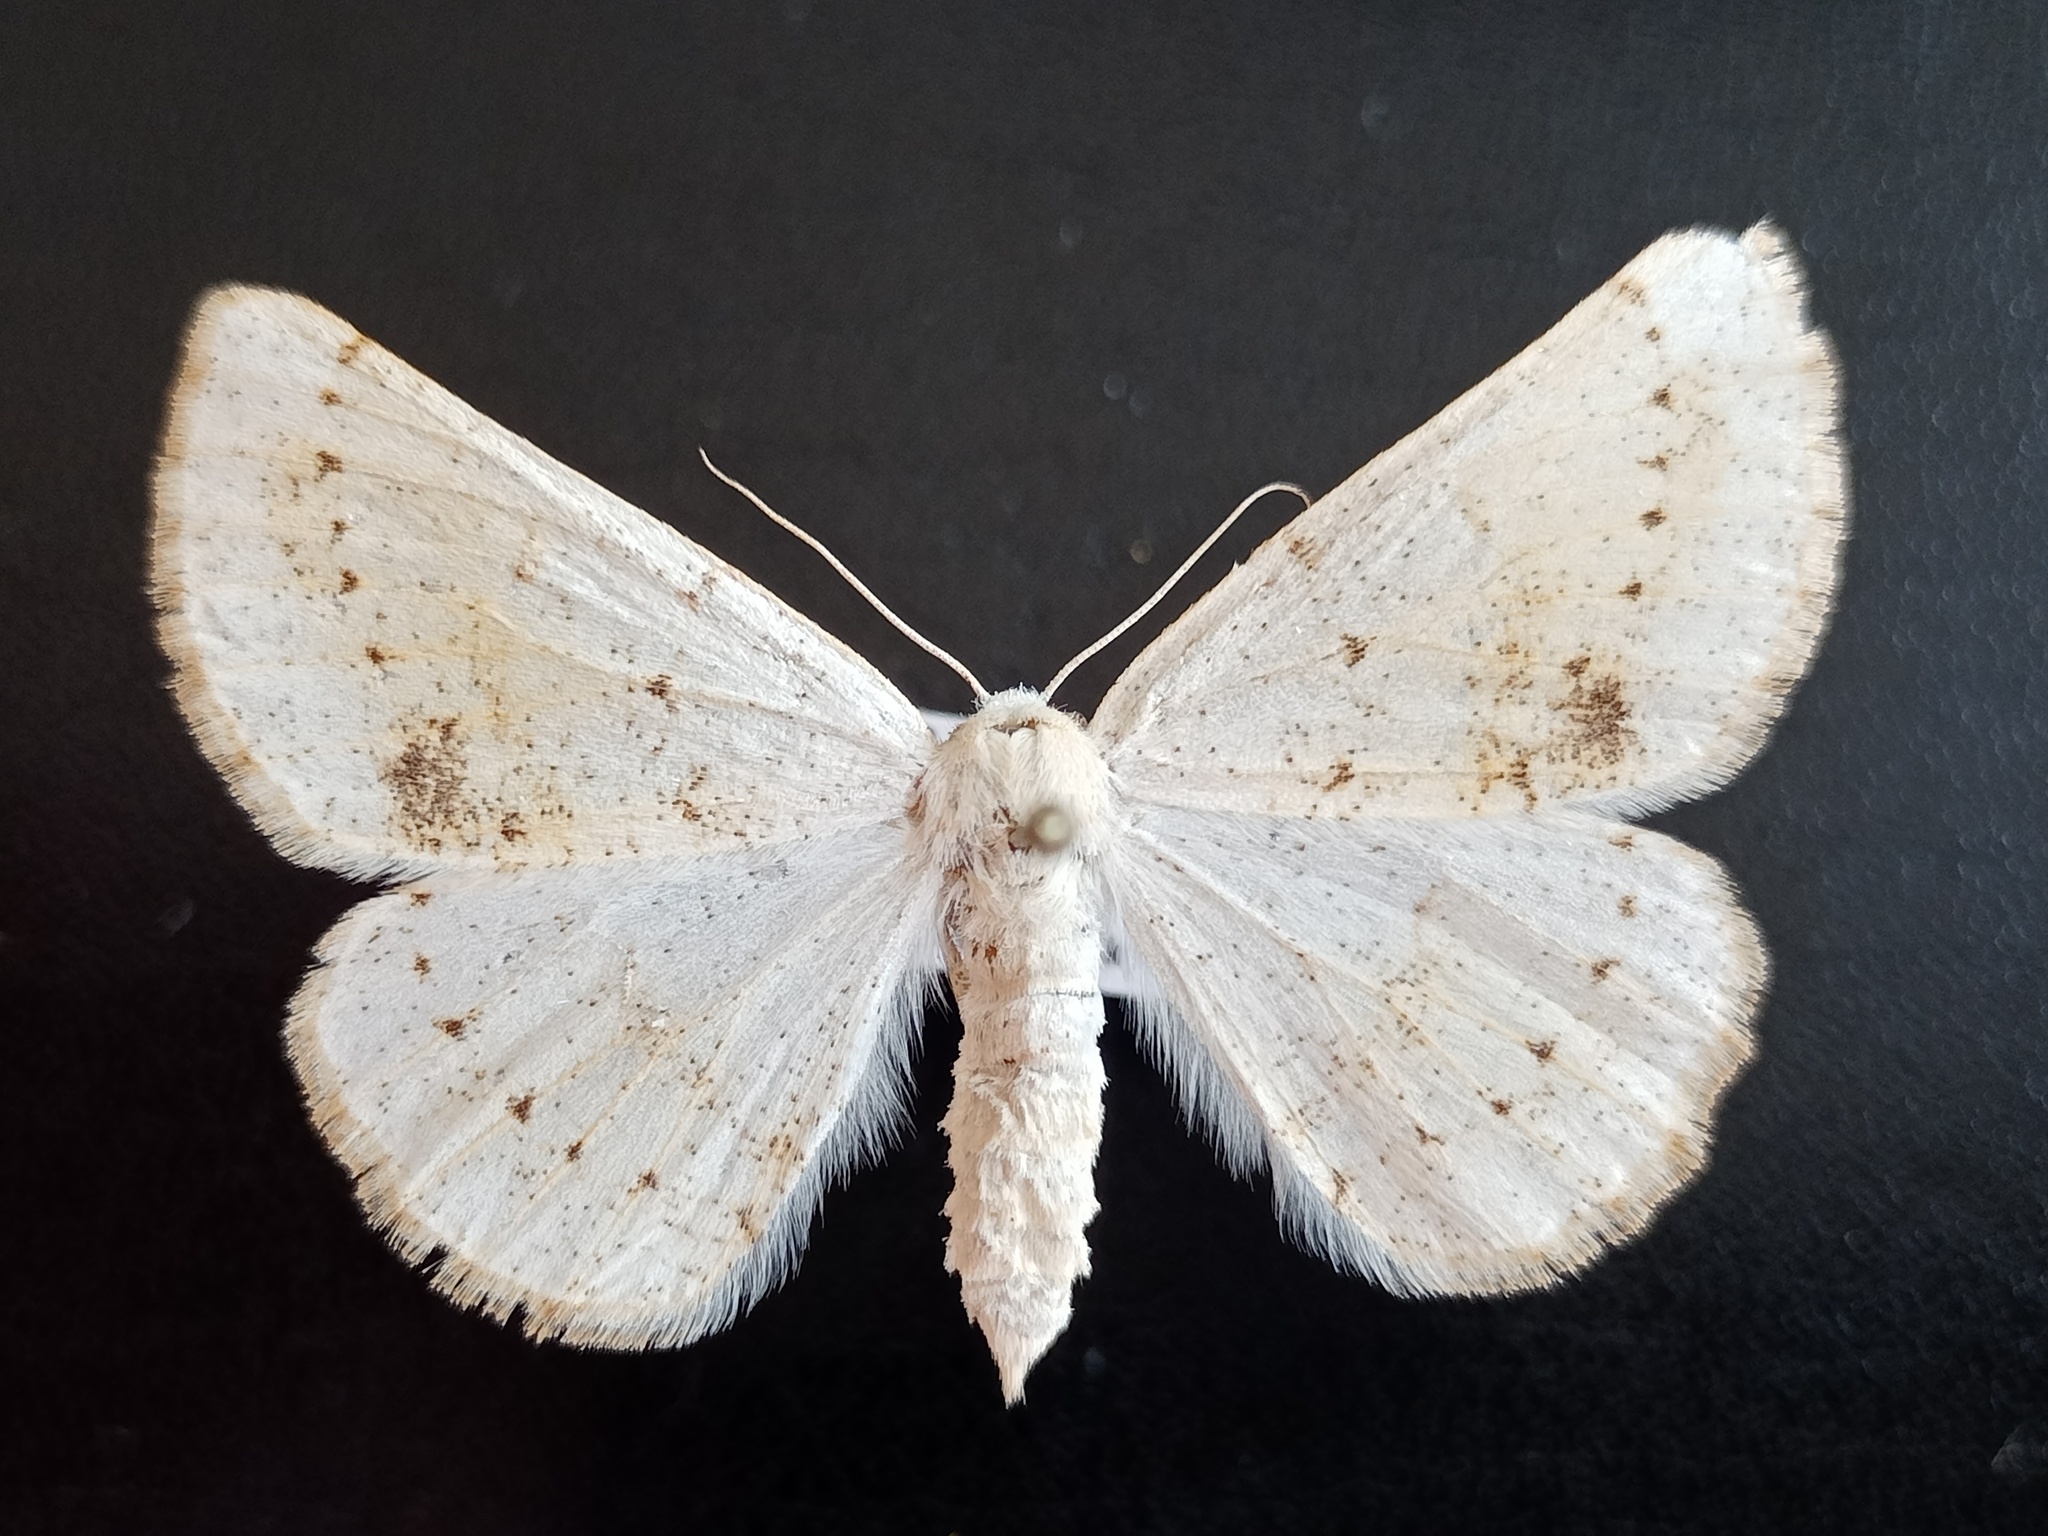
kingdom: Animalia
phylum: Arthropoda
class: Insecta
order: Lepidoptera
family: Geometridae
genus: Dyscia
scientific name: Dyscia conspersaria
